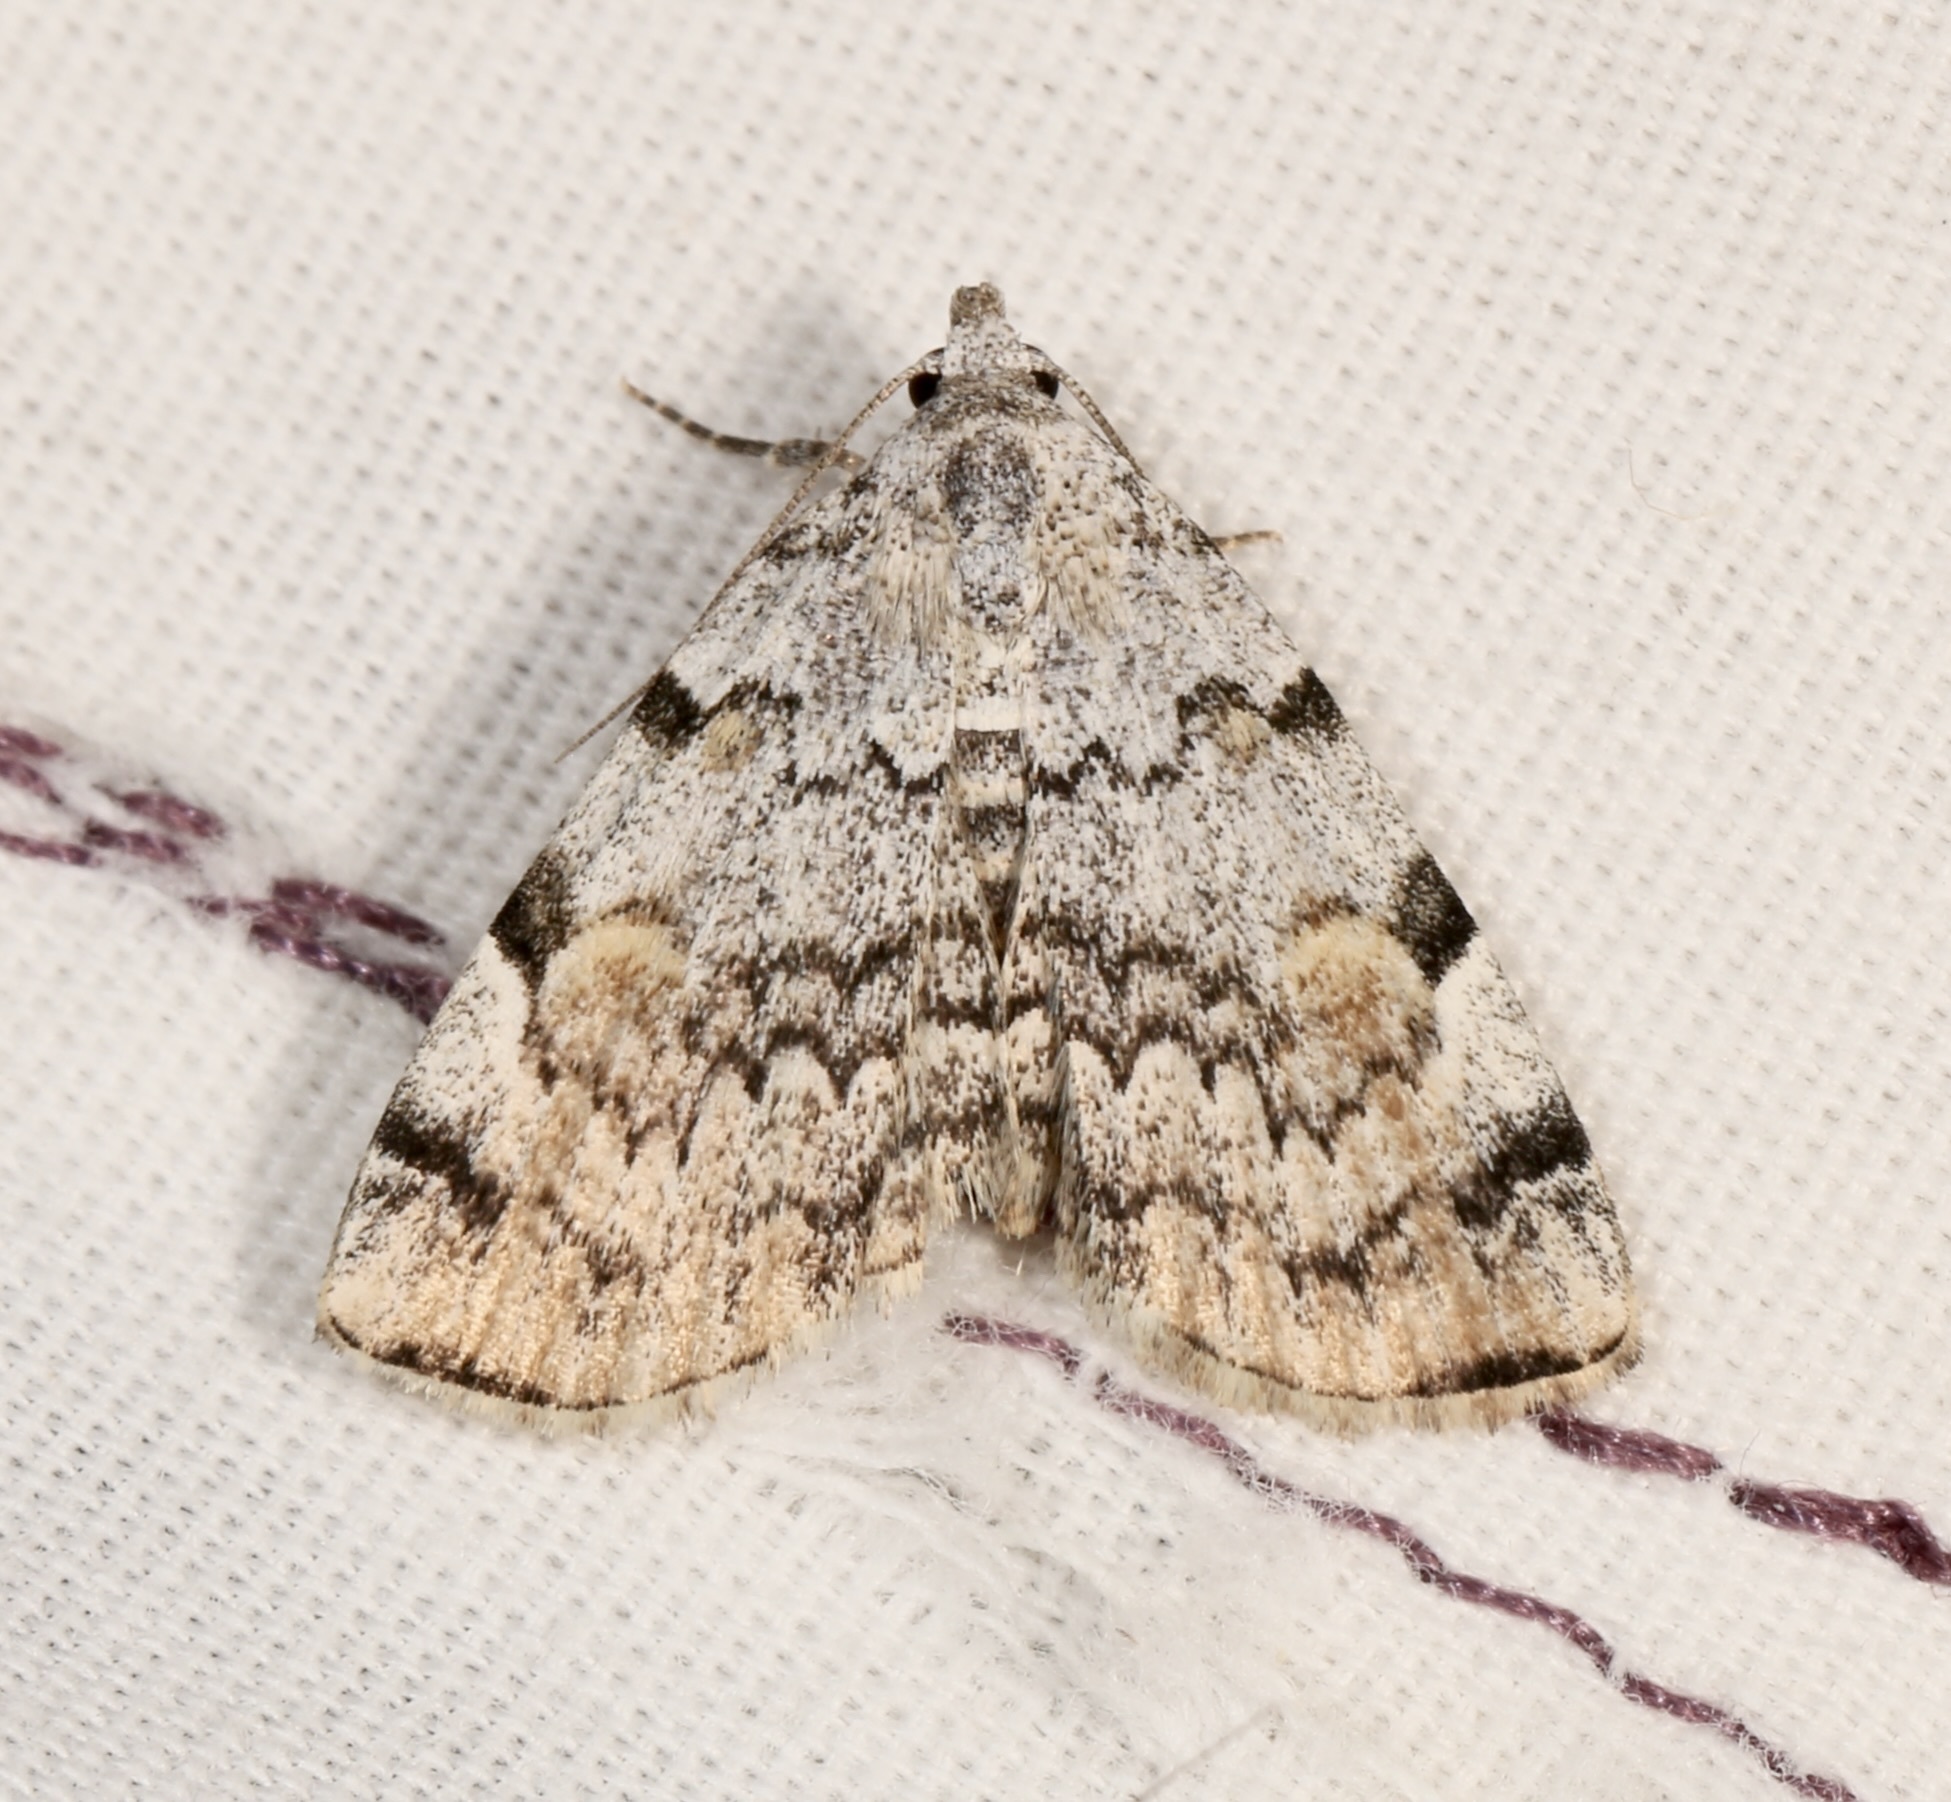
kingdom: Animalia
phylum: Arthropoda
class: Insecta
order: Lepidoptera
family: Erebidae
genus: Idia
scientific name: Idia americalis
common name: American idia moth
